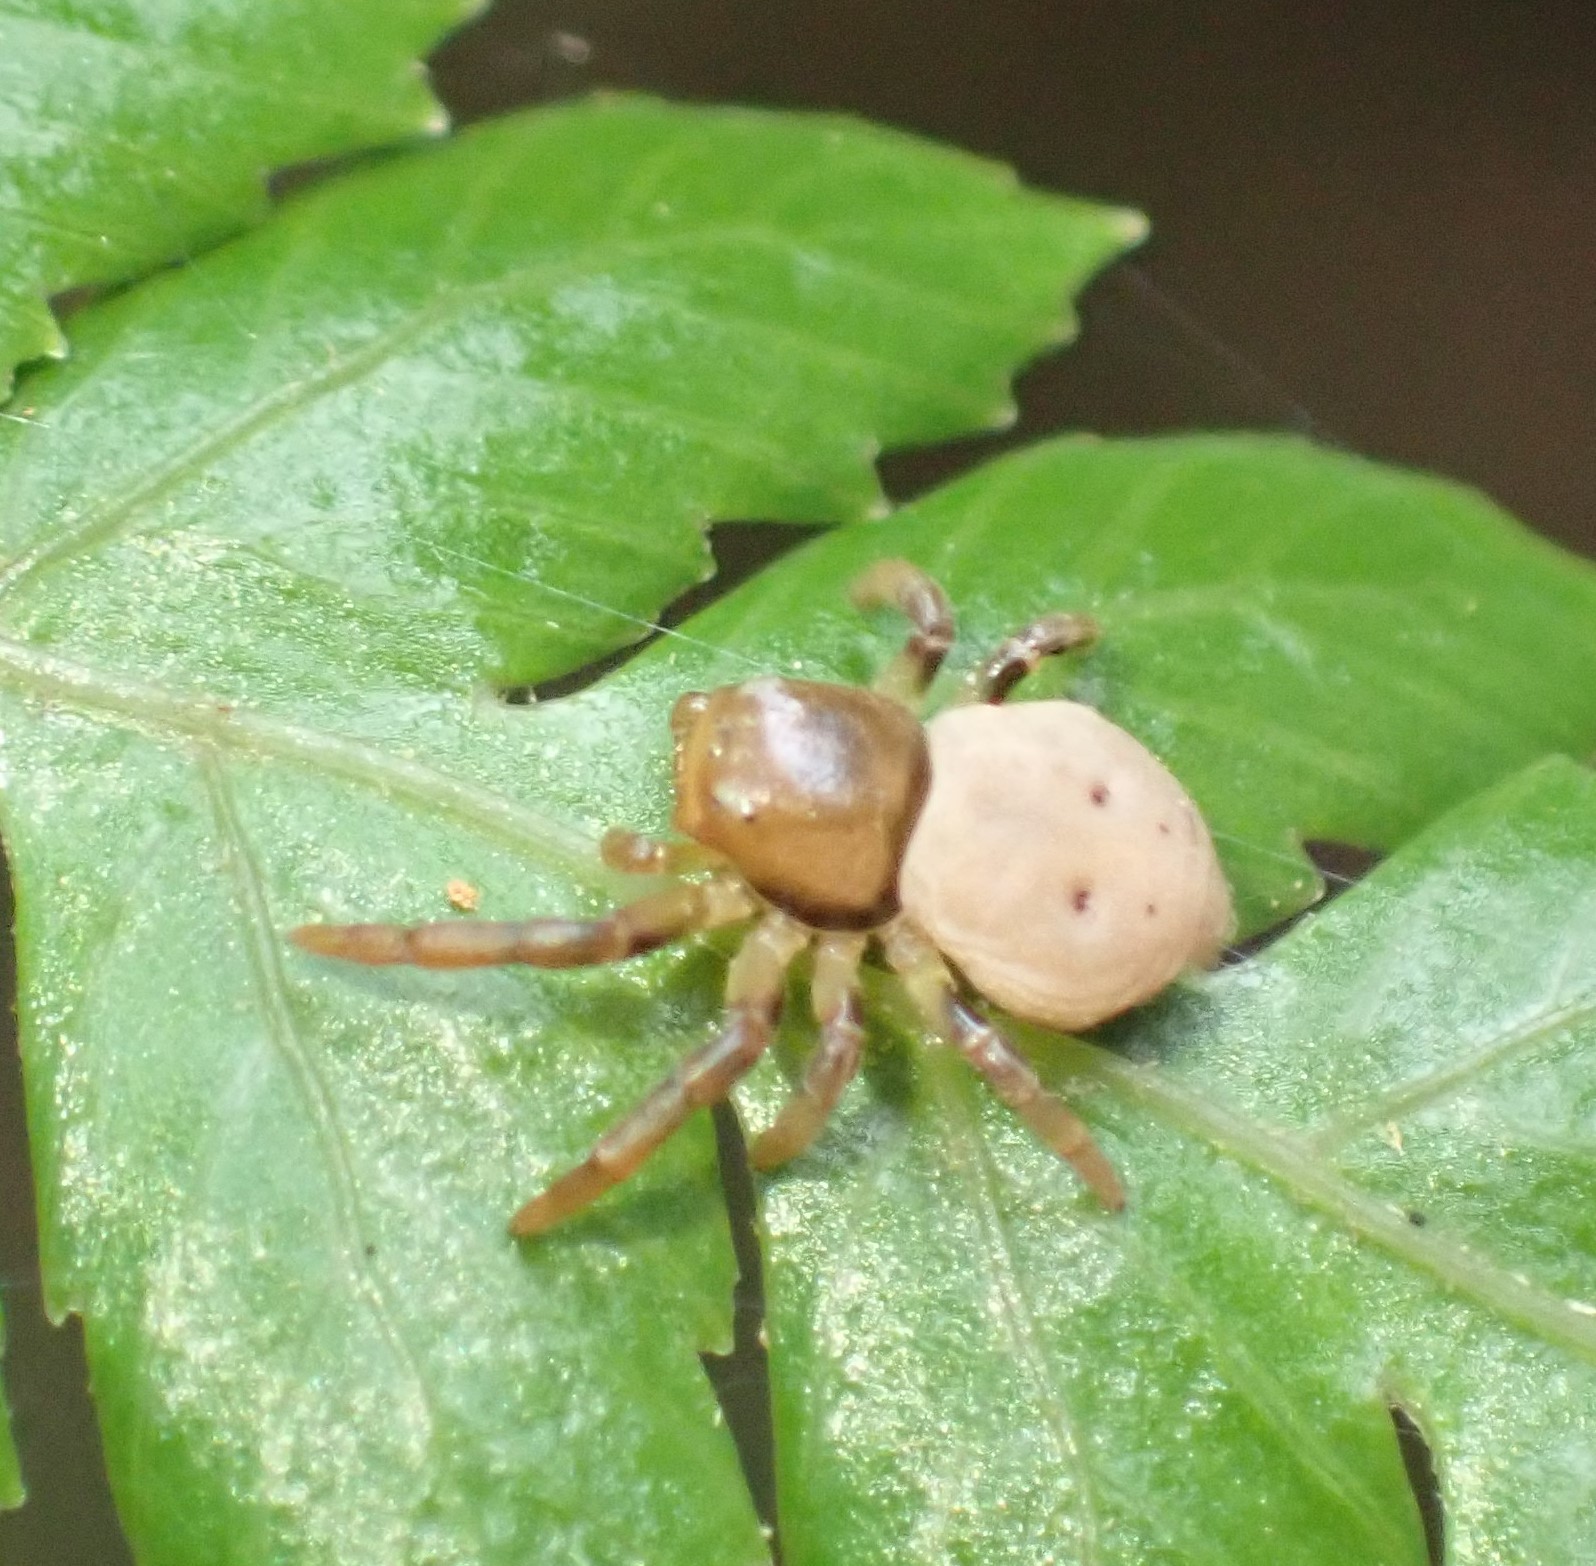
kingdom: Animalia
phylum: Arthropoda
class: Arachnida
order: Araneae
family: Thomisidae
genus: Cymbacha
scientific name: Cymbacha cerea
